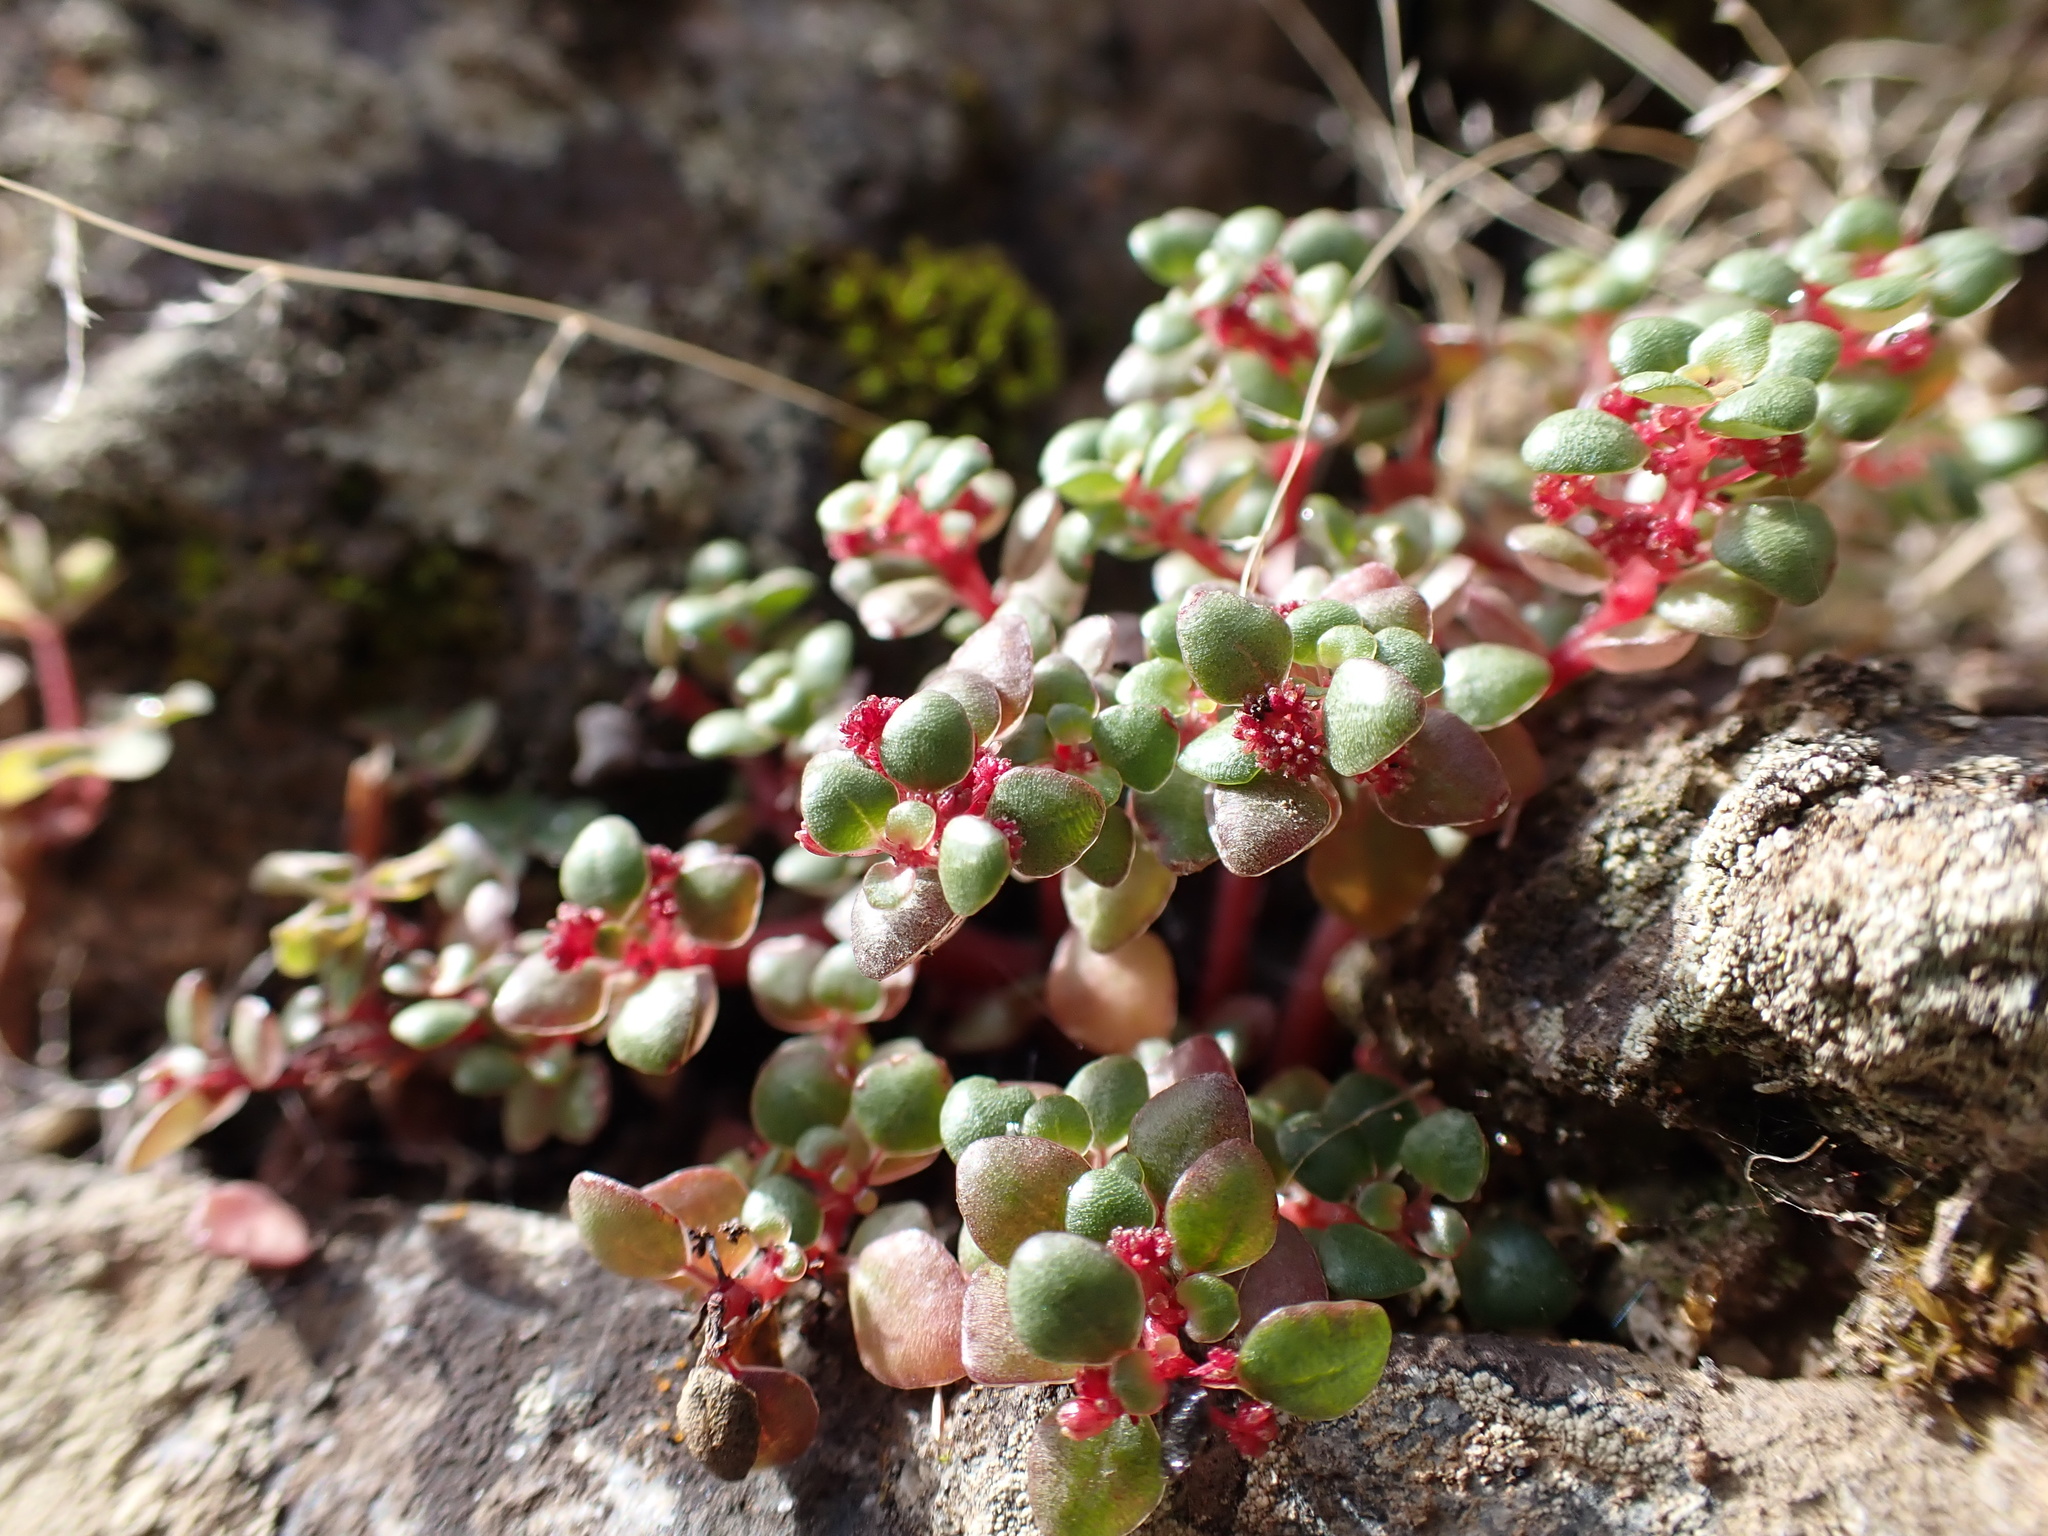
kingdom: Plantae
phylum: Tracheophyta
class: Magnoliopsida
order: Rosales
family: Urticaceae
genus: Pilea
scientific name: Pilea serpyllacea
